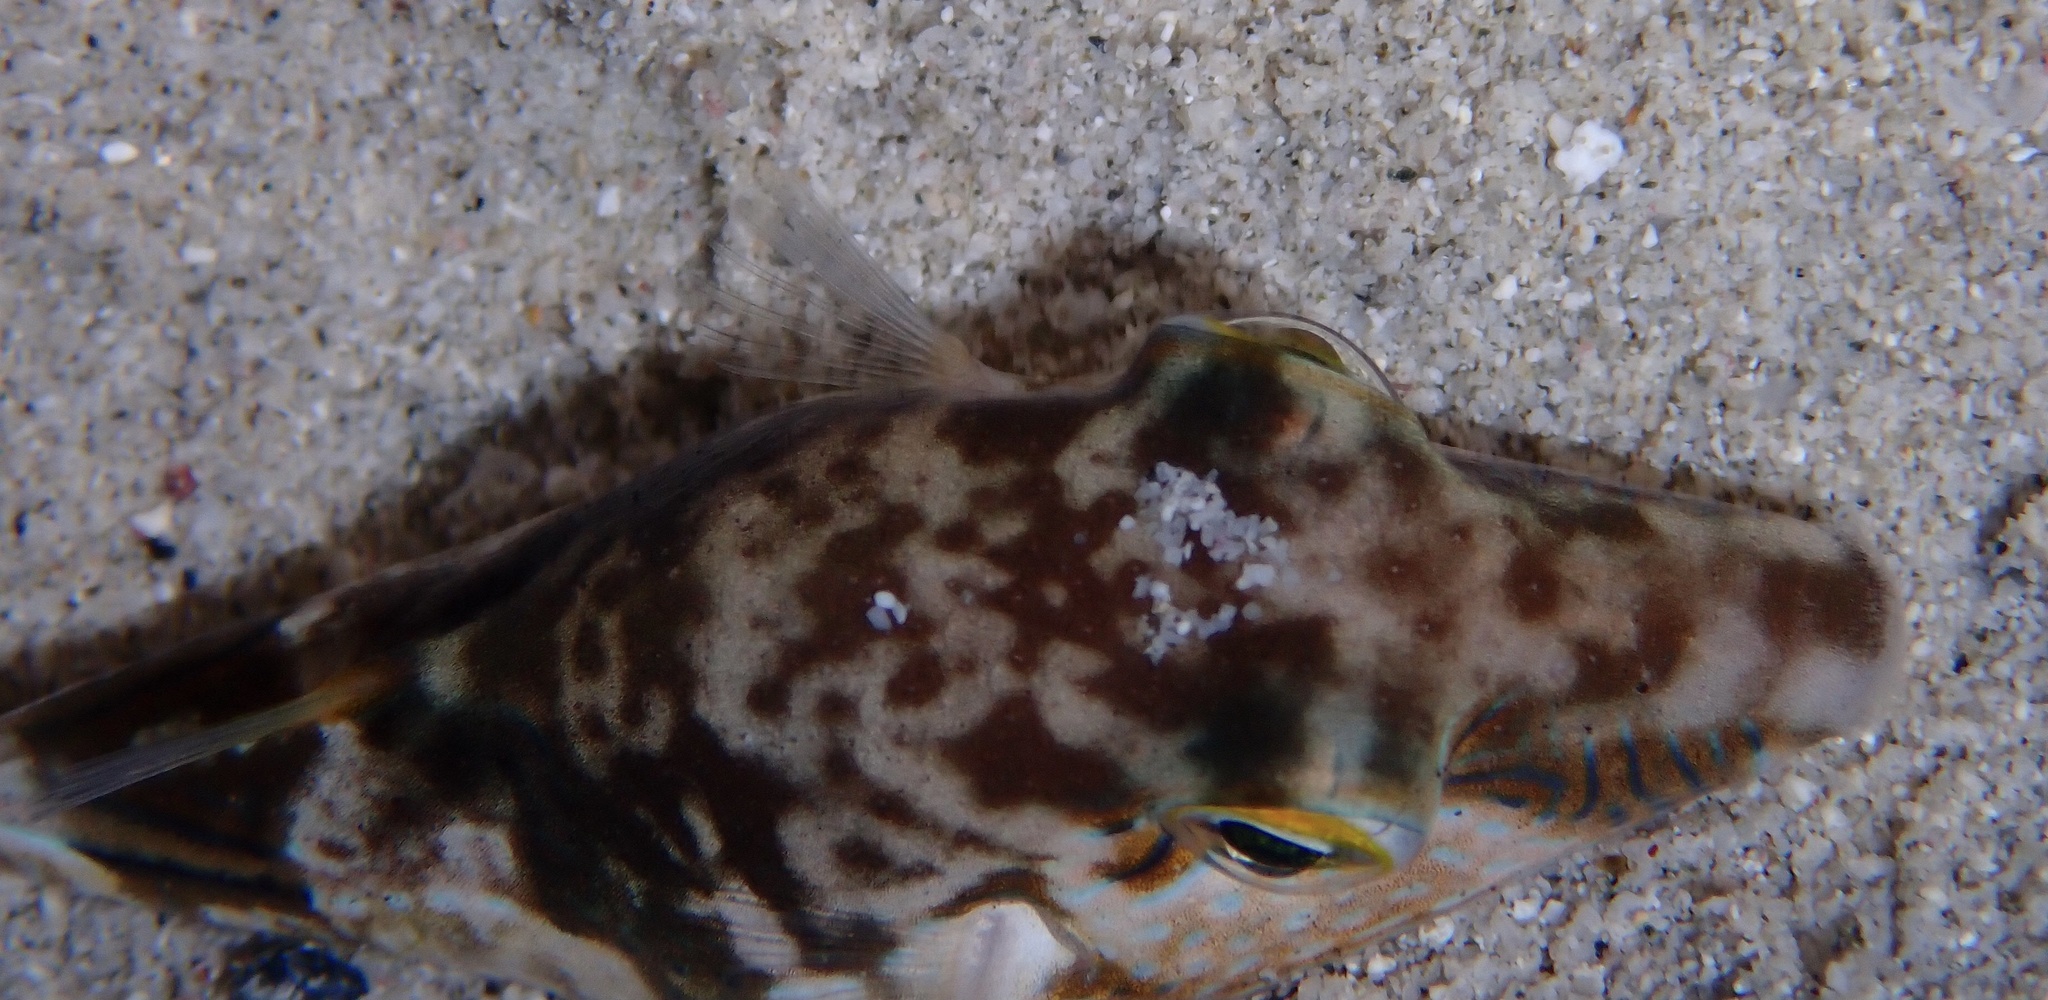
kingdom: Animalia
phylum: Chordata
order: Tetraodontiformes
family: Tetraodontidae
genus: Canthigaster
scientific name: Canthigaster rostrata
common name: Caribbean sharpnose-puffer
